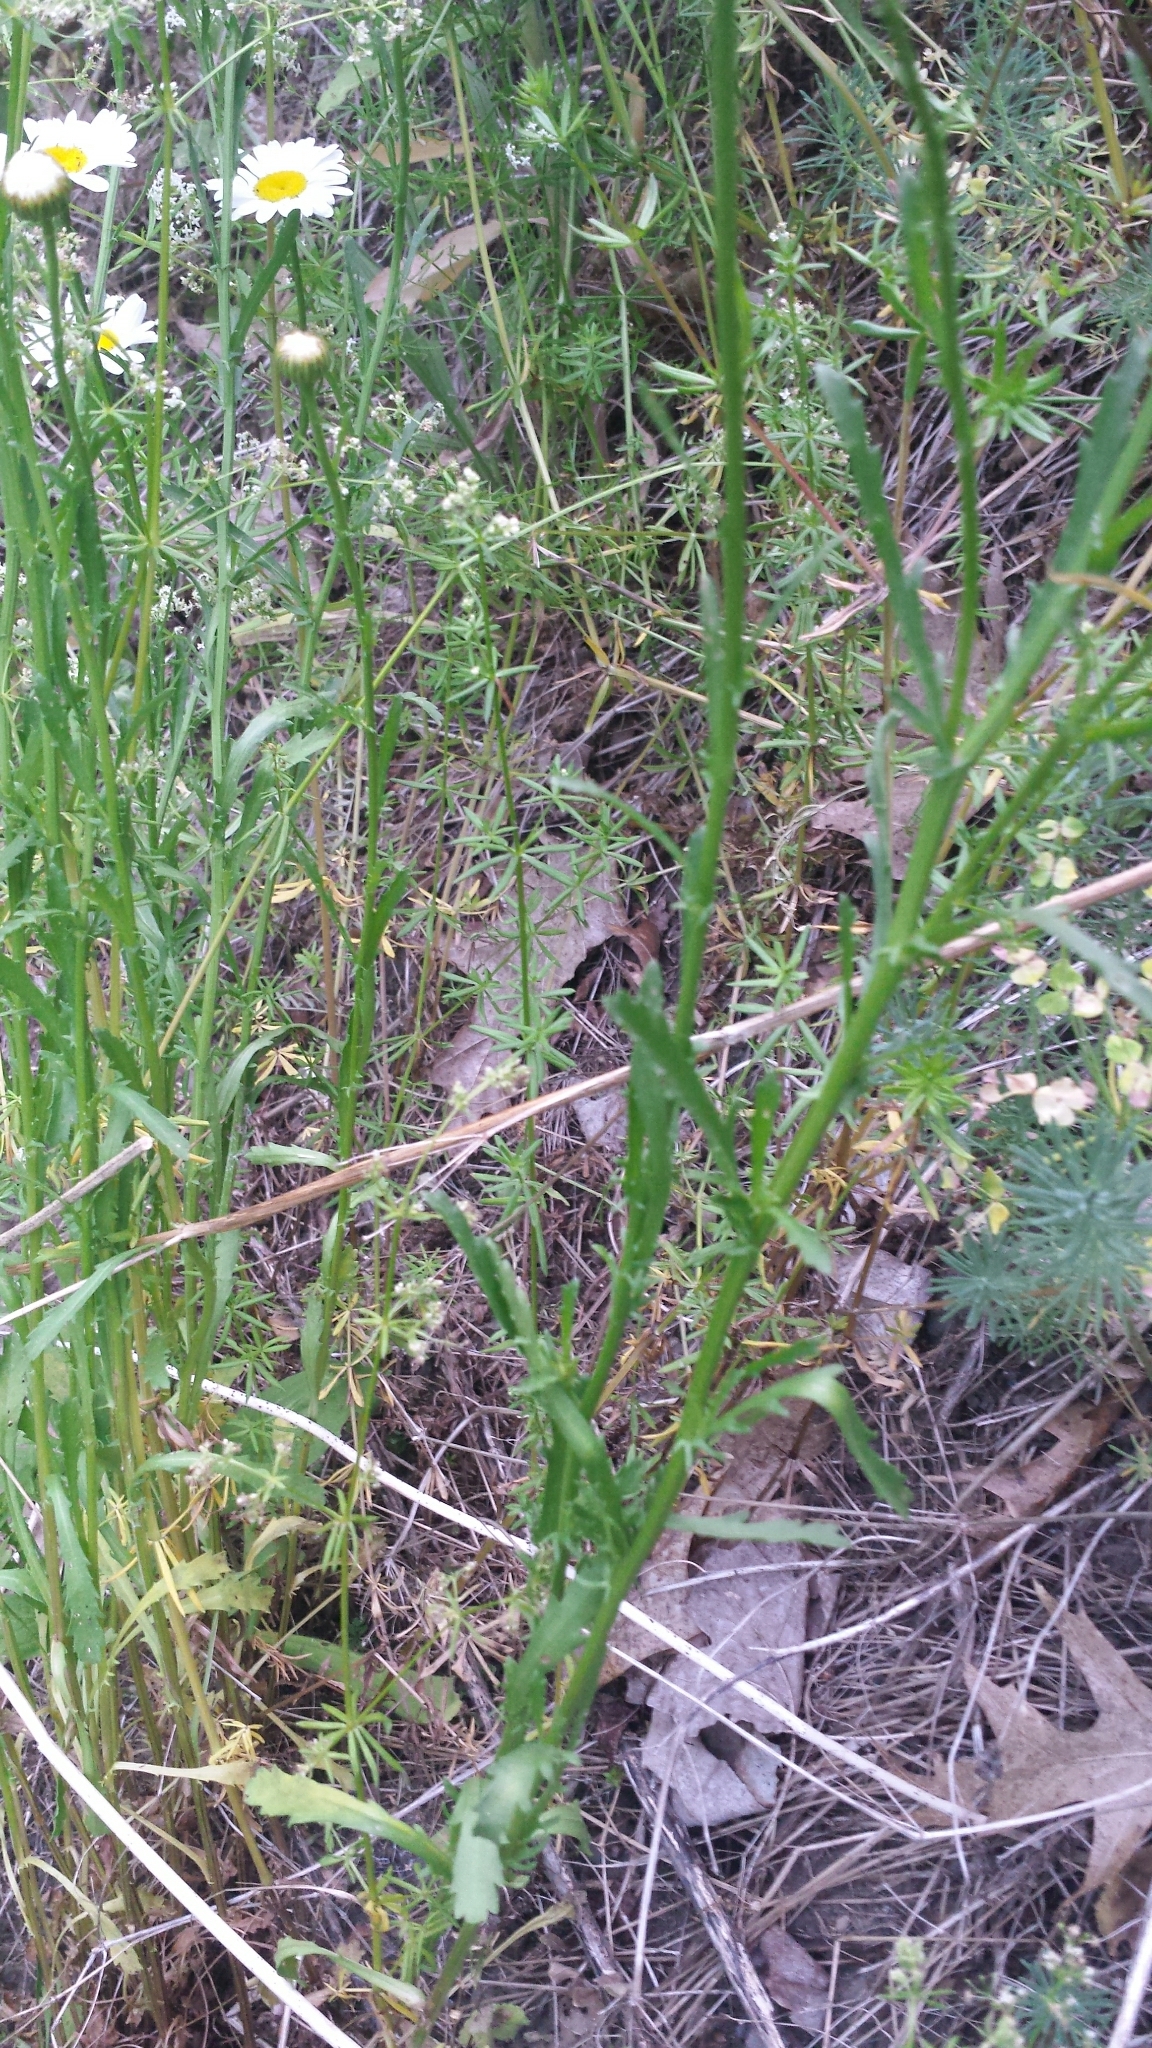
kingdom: Plantae
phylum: Tracheophyta
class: Magnoliopsida
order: Asterales
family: Asteraceae
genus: Leucanthemum
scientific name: Leucanthemum vulgare
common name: Oxeye daisy
